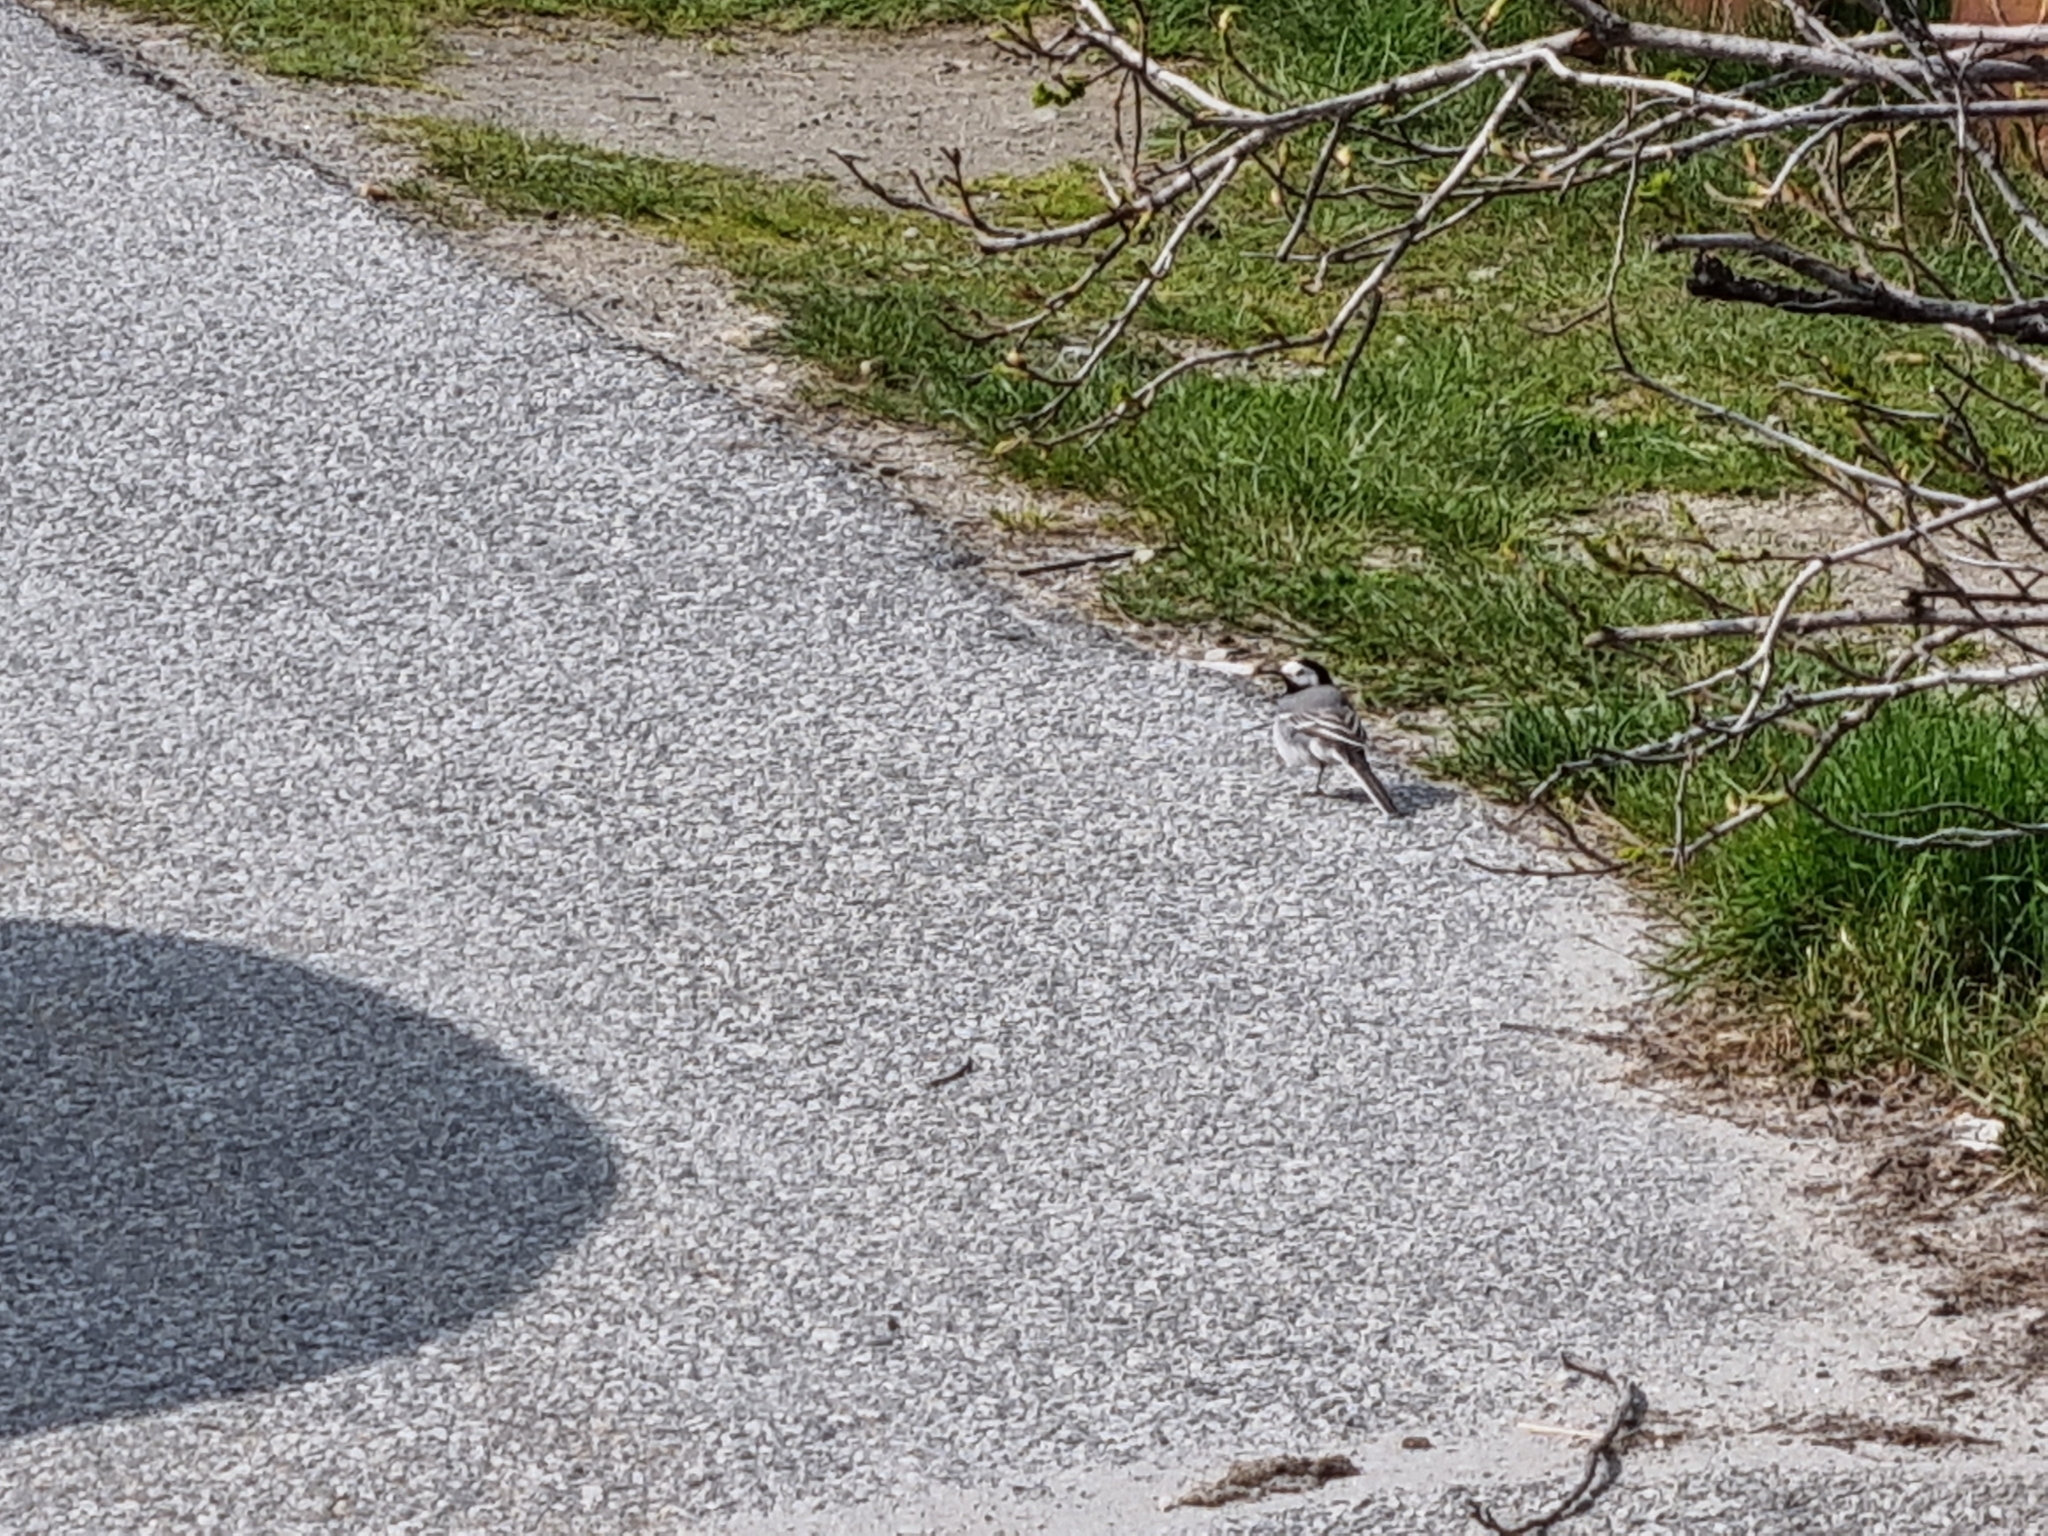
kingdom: Animalia
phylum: Chordata
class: Aves
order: Passeriformes
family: Motacillidae
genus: Motacilla
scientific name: Motacilla alba
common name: White wagtail
